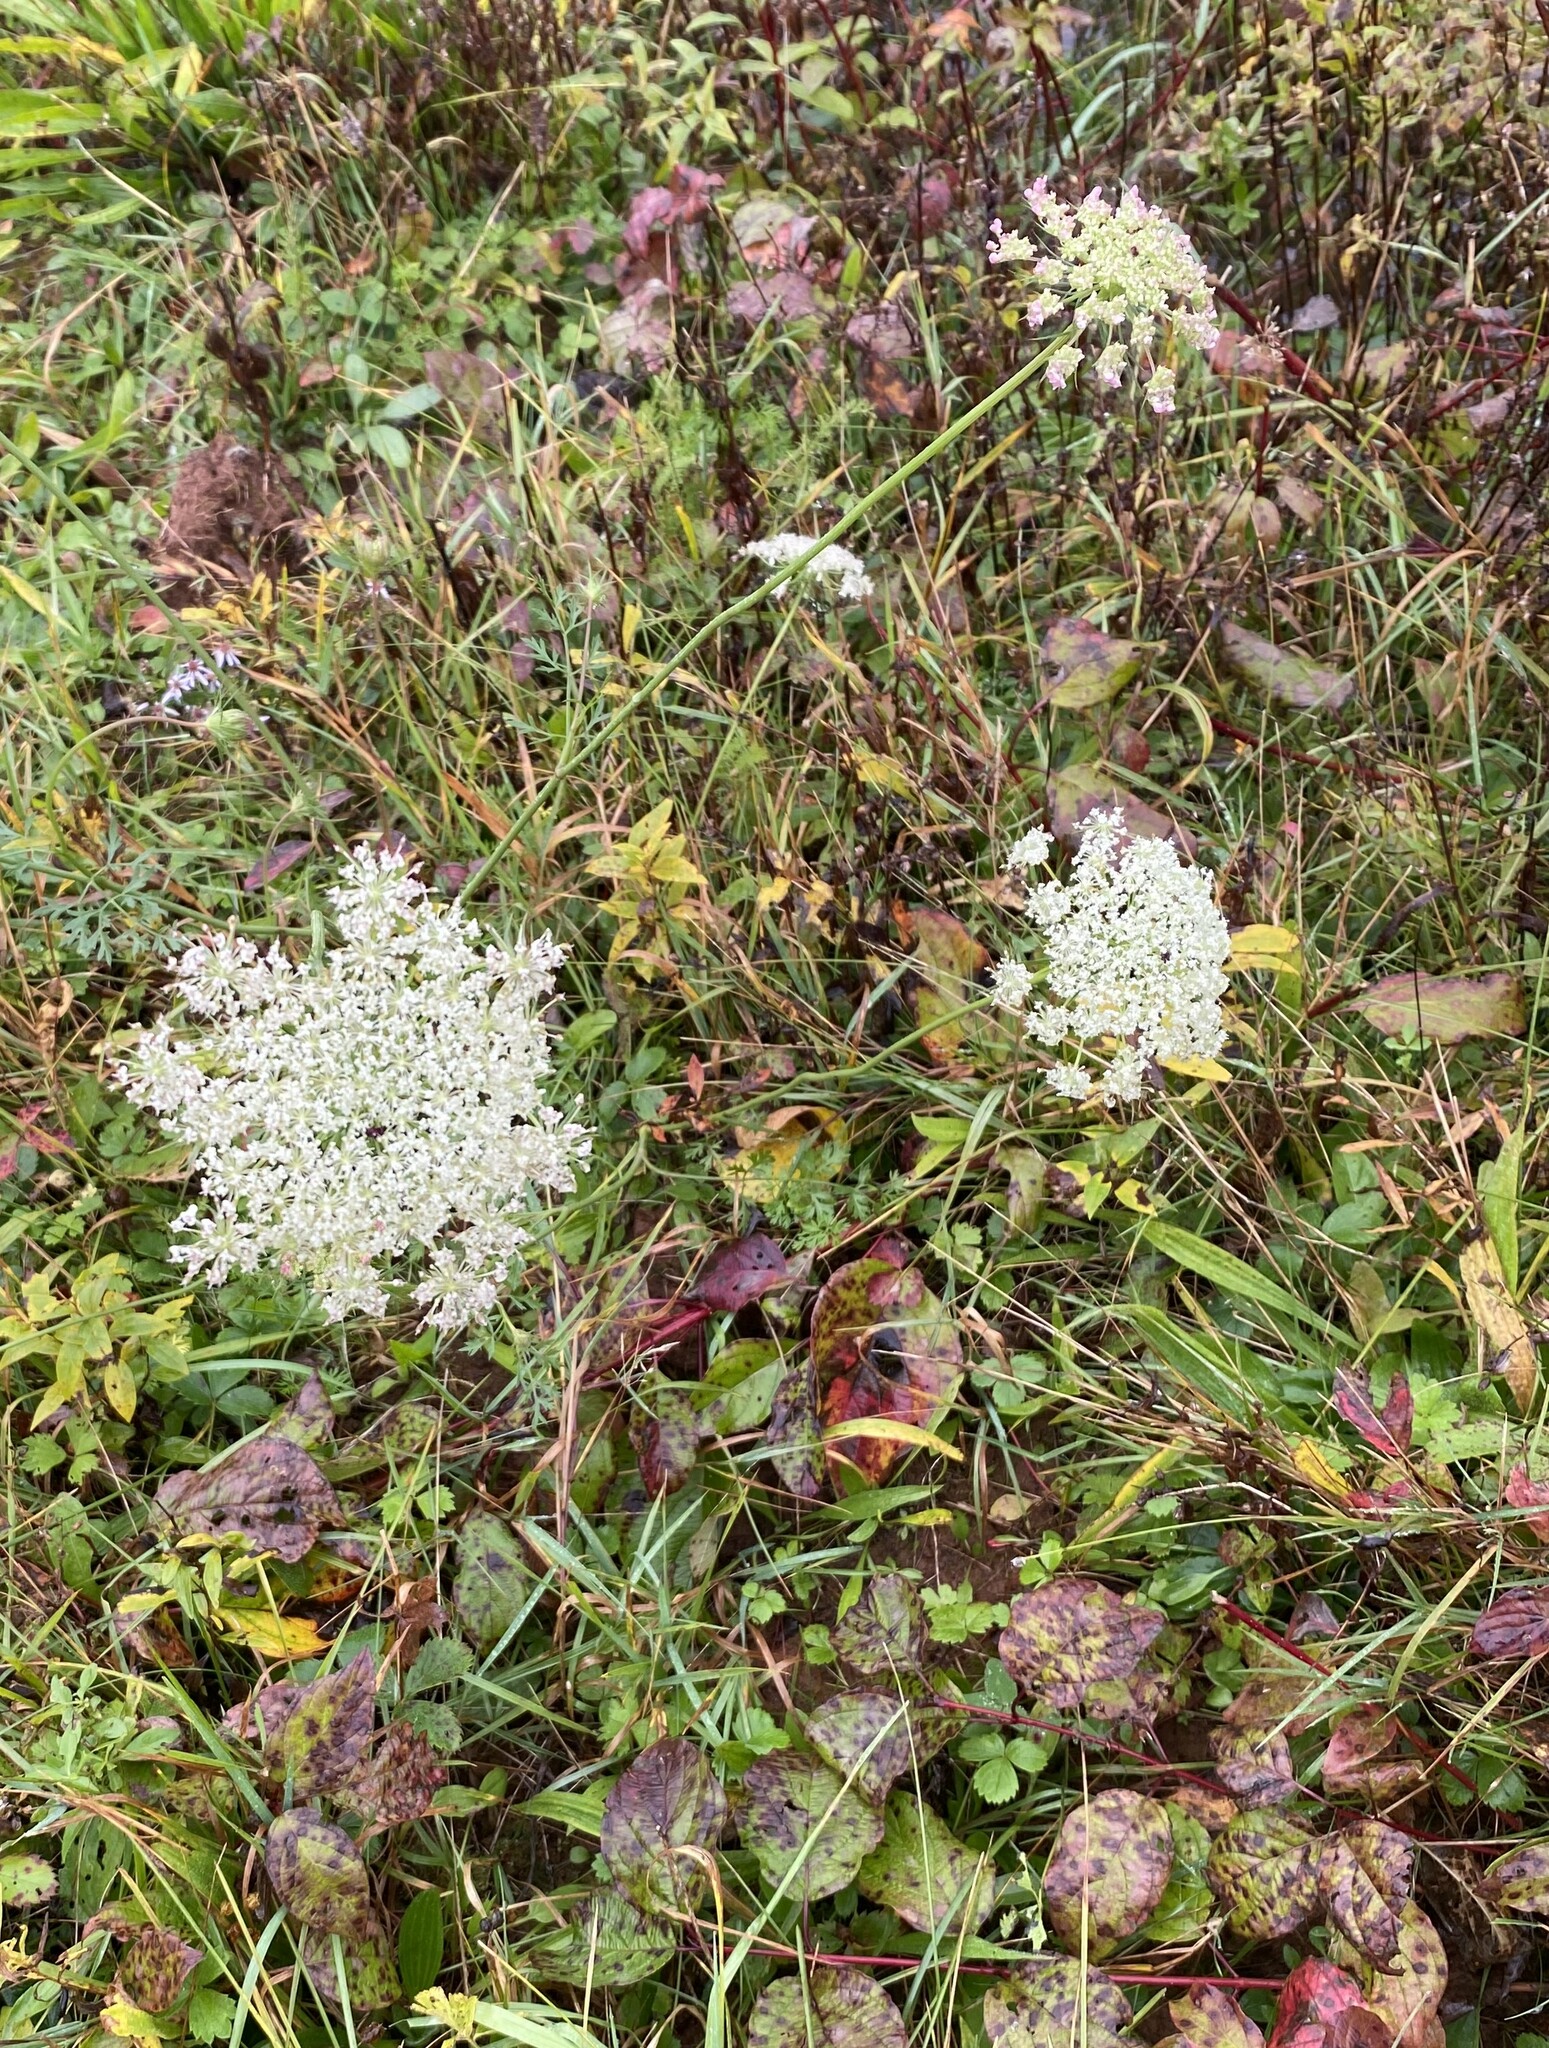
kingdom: Plantae
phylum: Tracheophyta
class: Magnoliopsida
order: Apiales
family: Apiaceae
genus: Daucus
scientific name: Daucus carota
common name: Wild carrot
